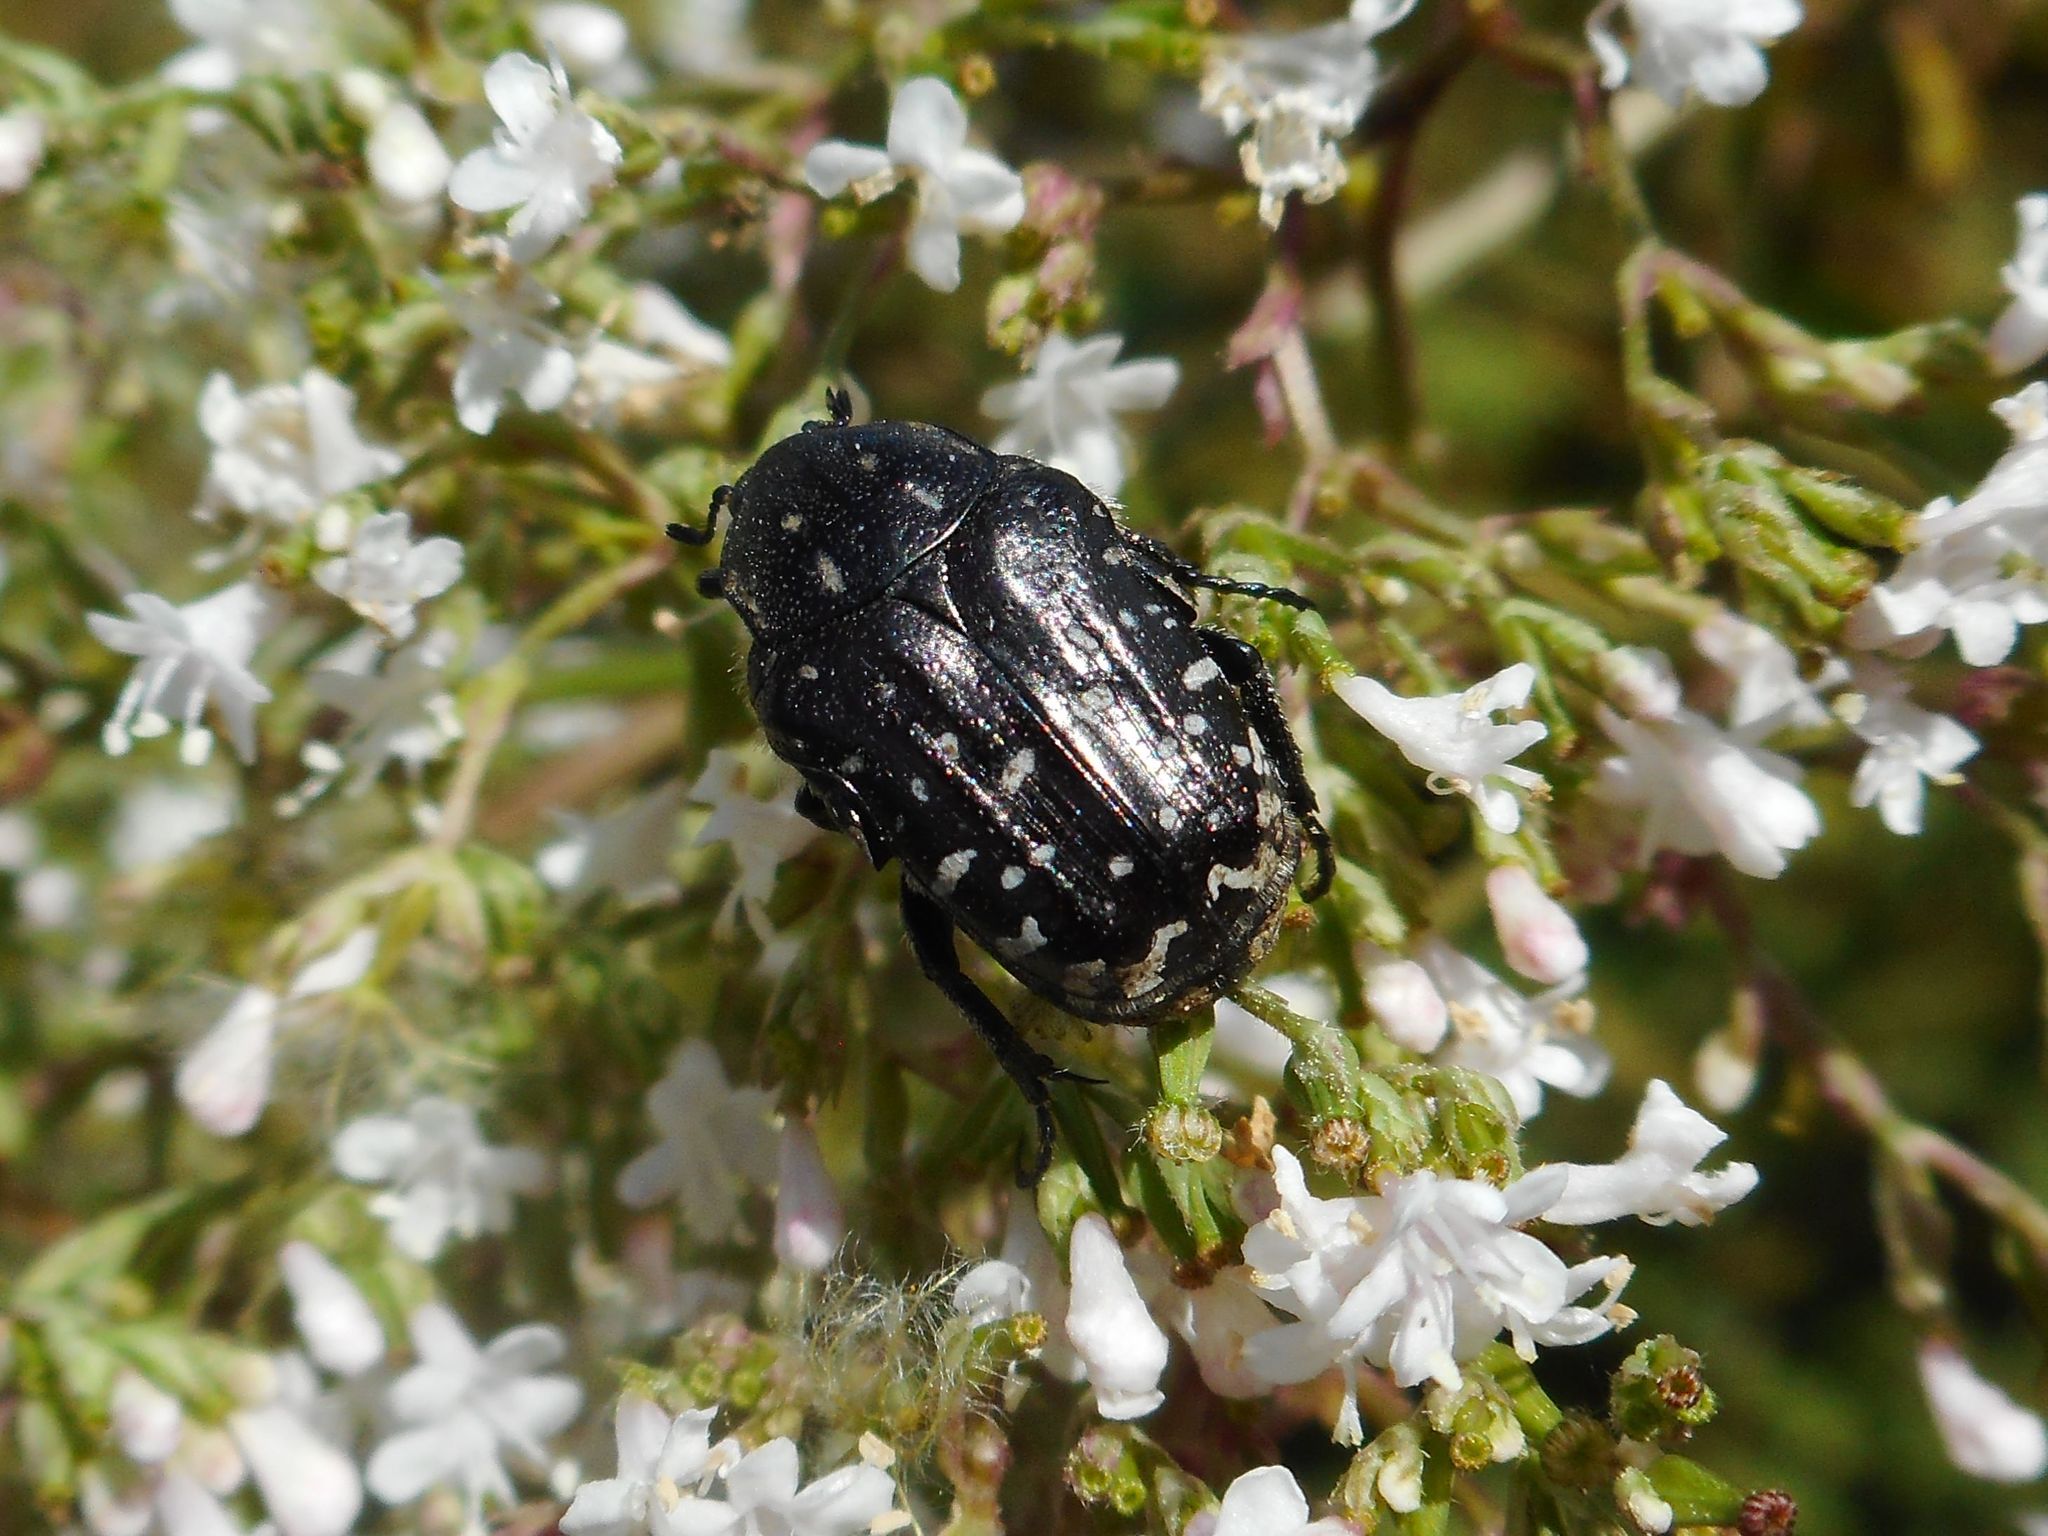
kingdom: Animalia
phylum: Arthropoda
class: Insecta
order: Coleoptera
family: Scarabaeidae
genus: Oxythyrea
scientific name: Oxythyrea funesta
